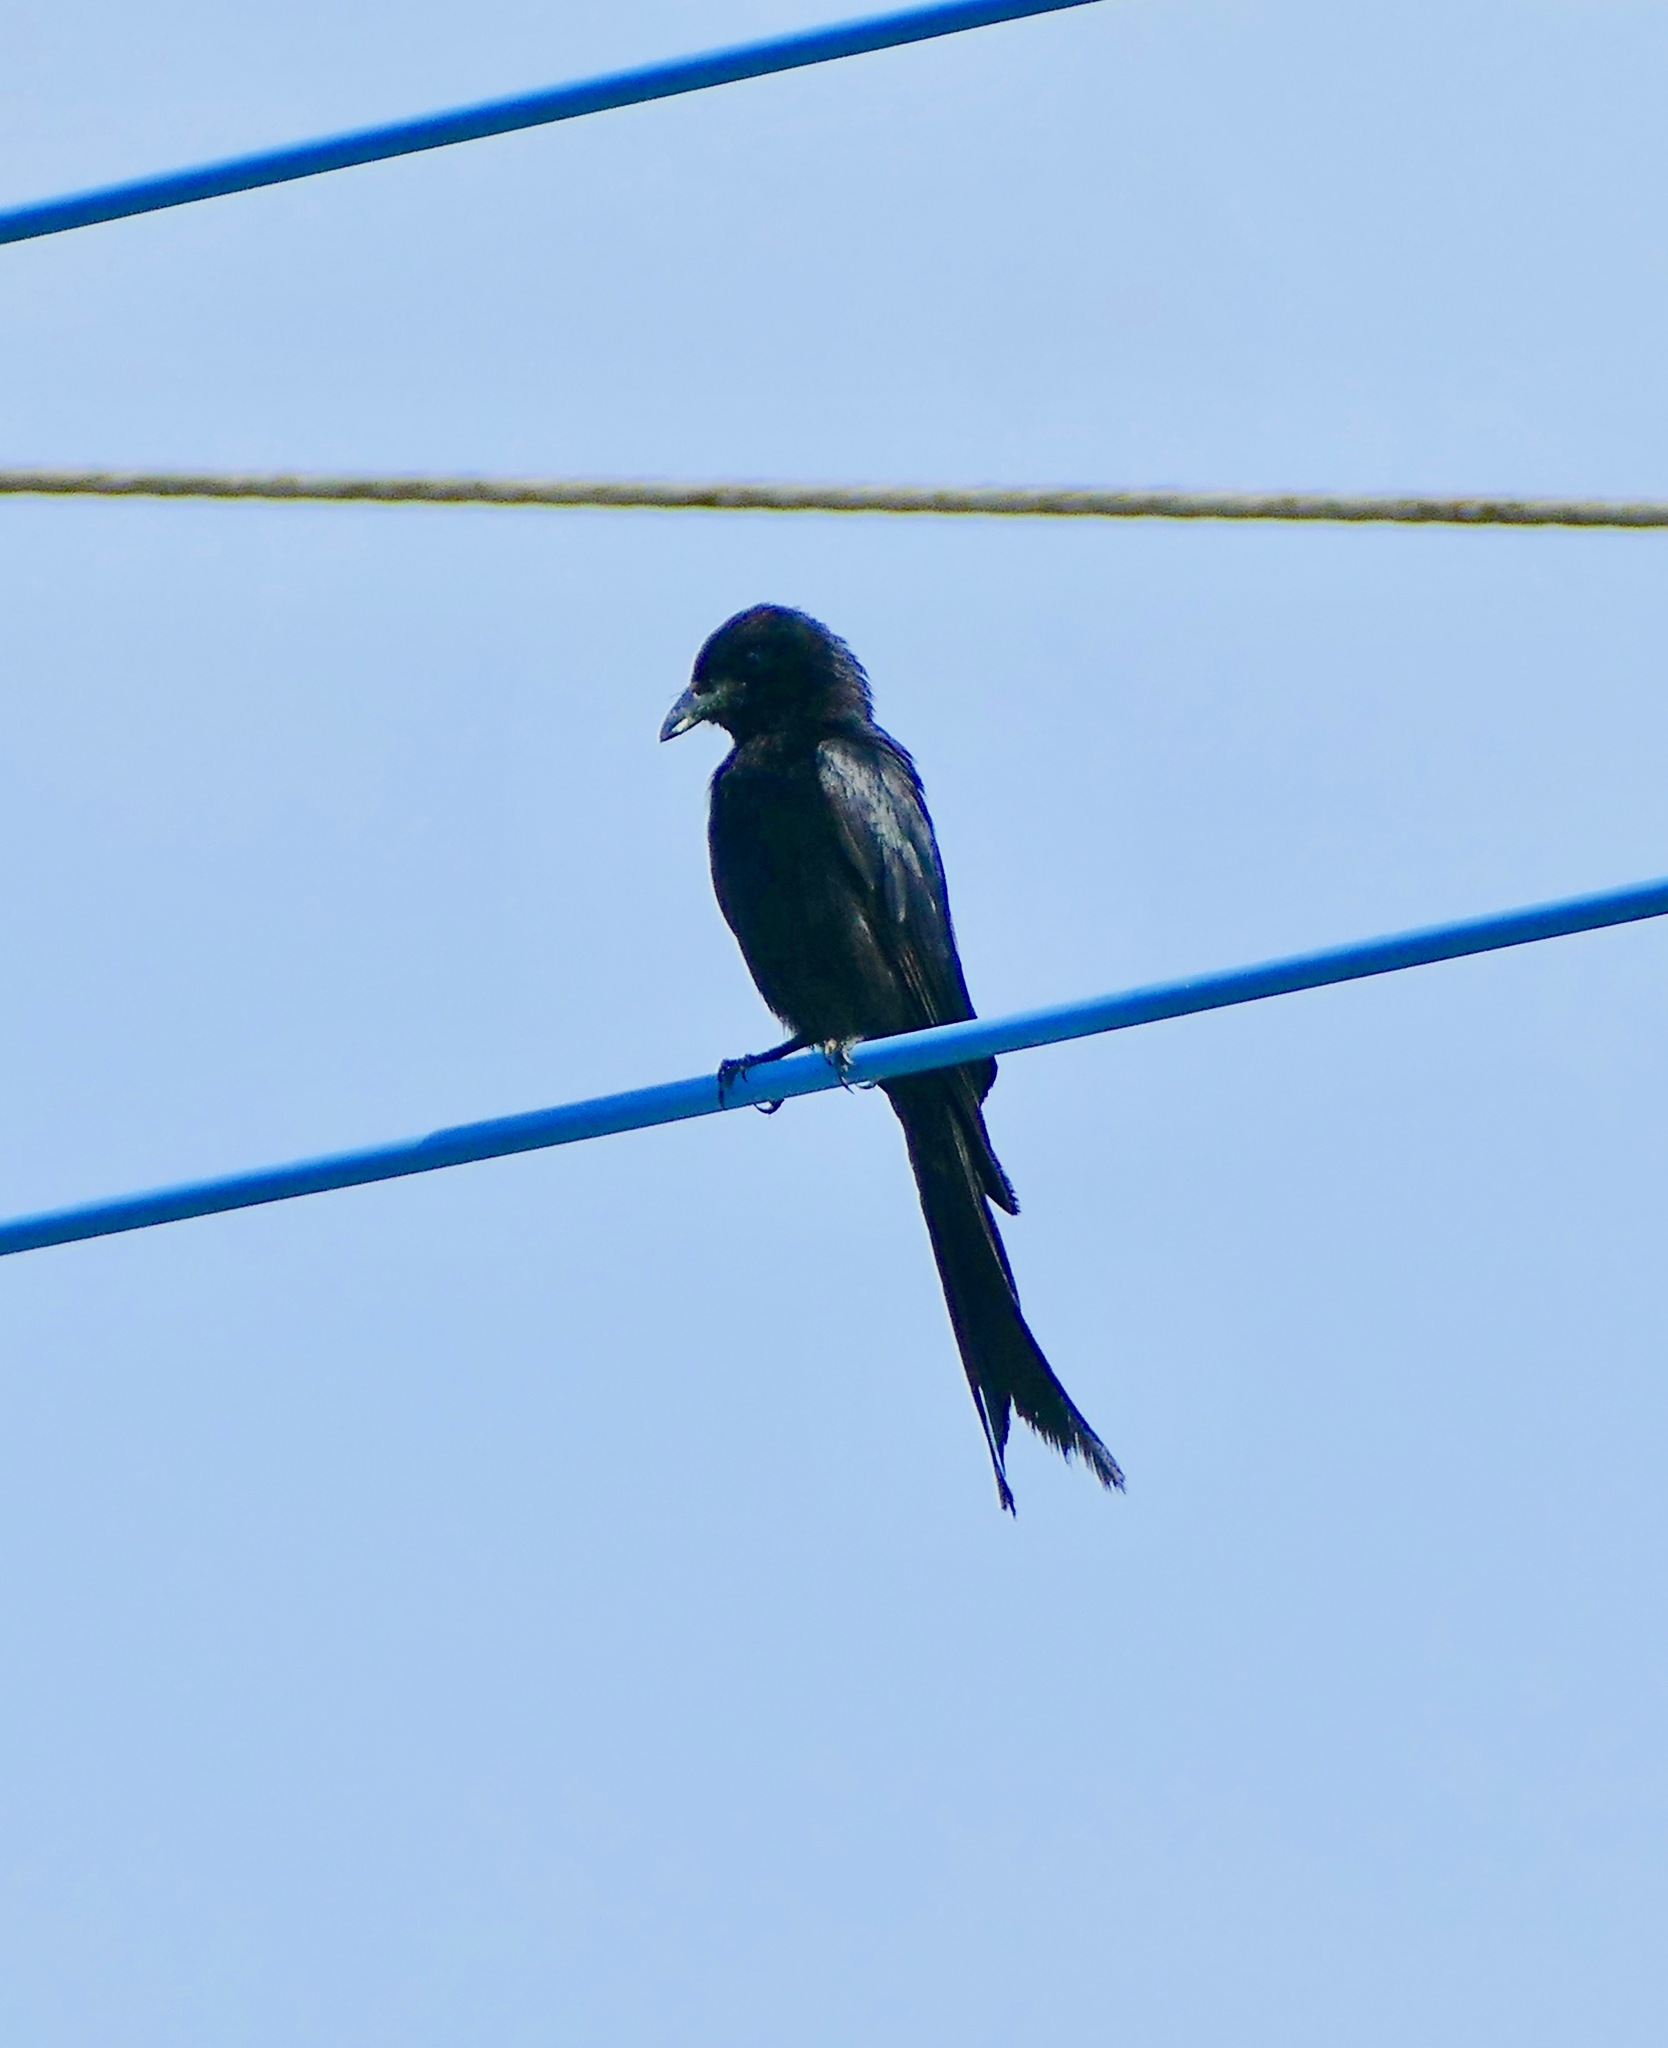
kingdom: Animalia
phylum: Chordata
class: Aves
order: Passeriformes
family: Dicruridae
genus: Dicrurus
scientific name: Dicrurus macrocercus
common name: Black drongo
